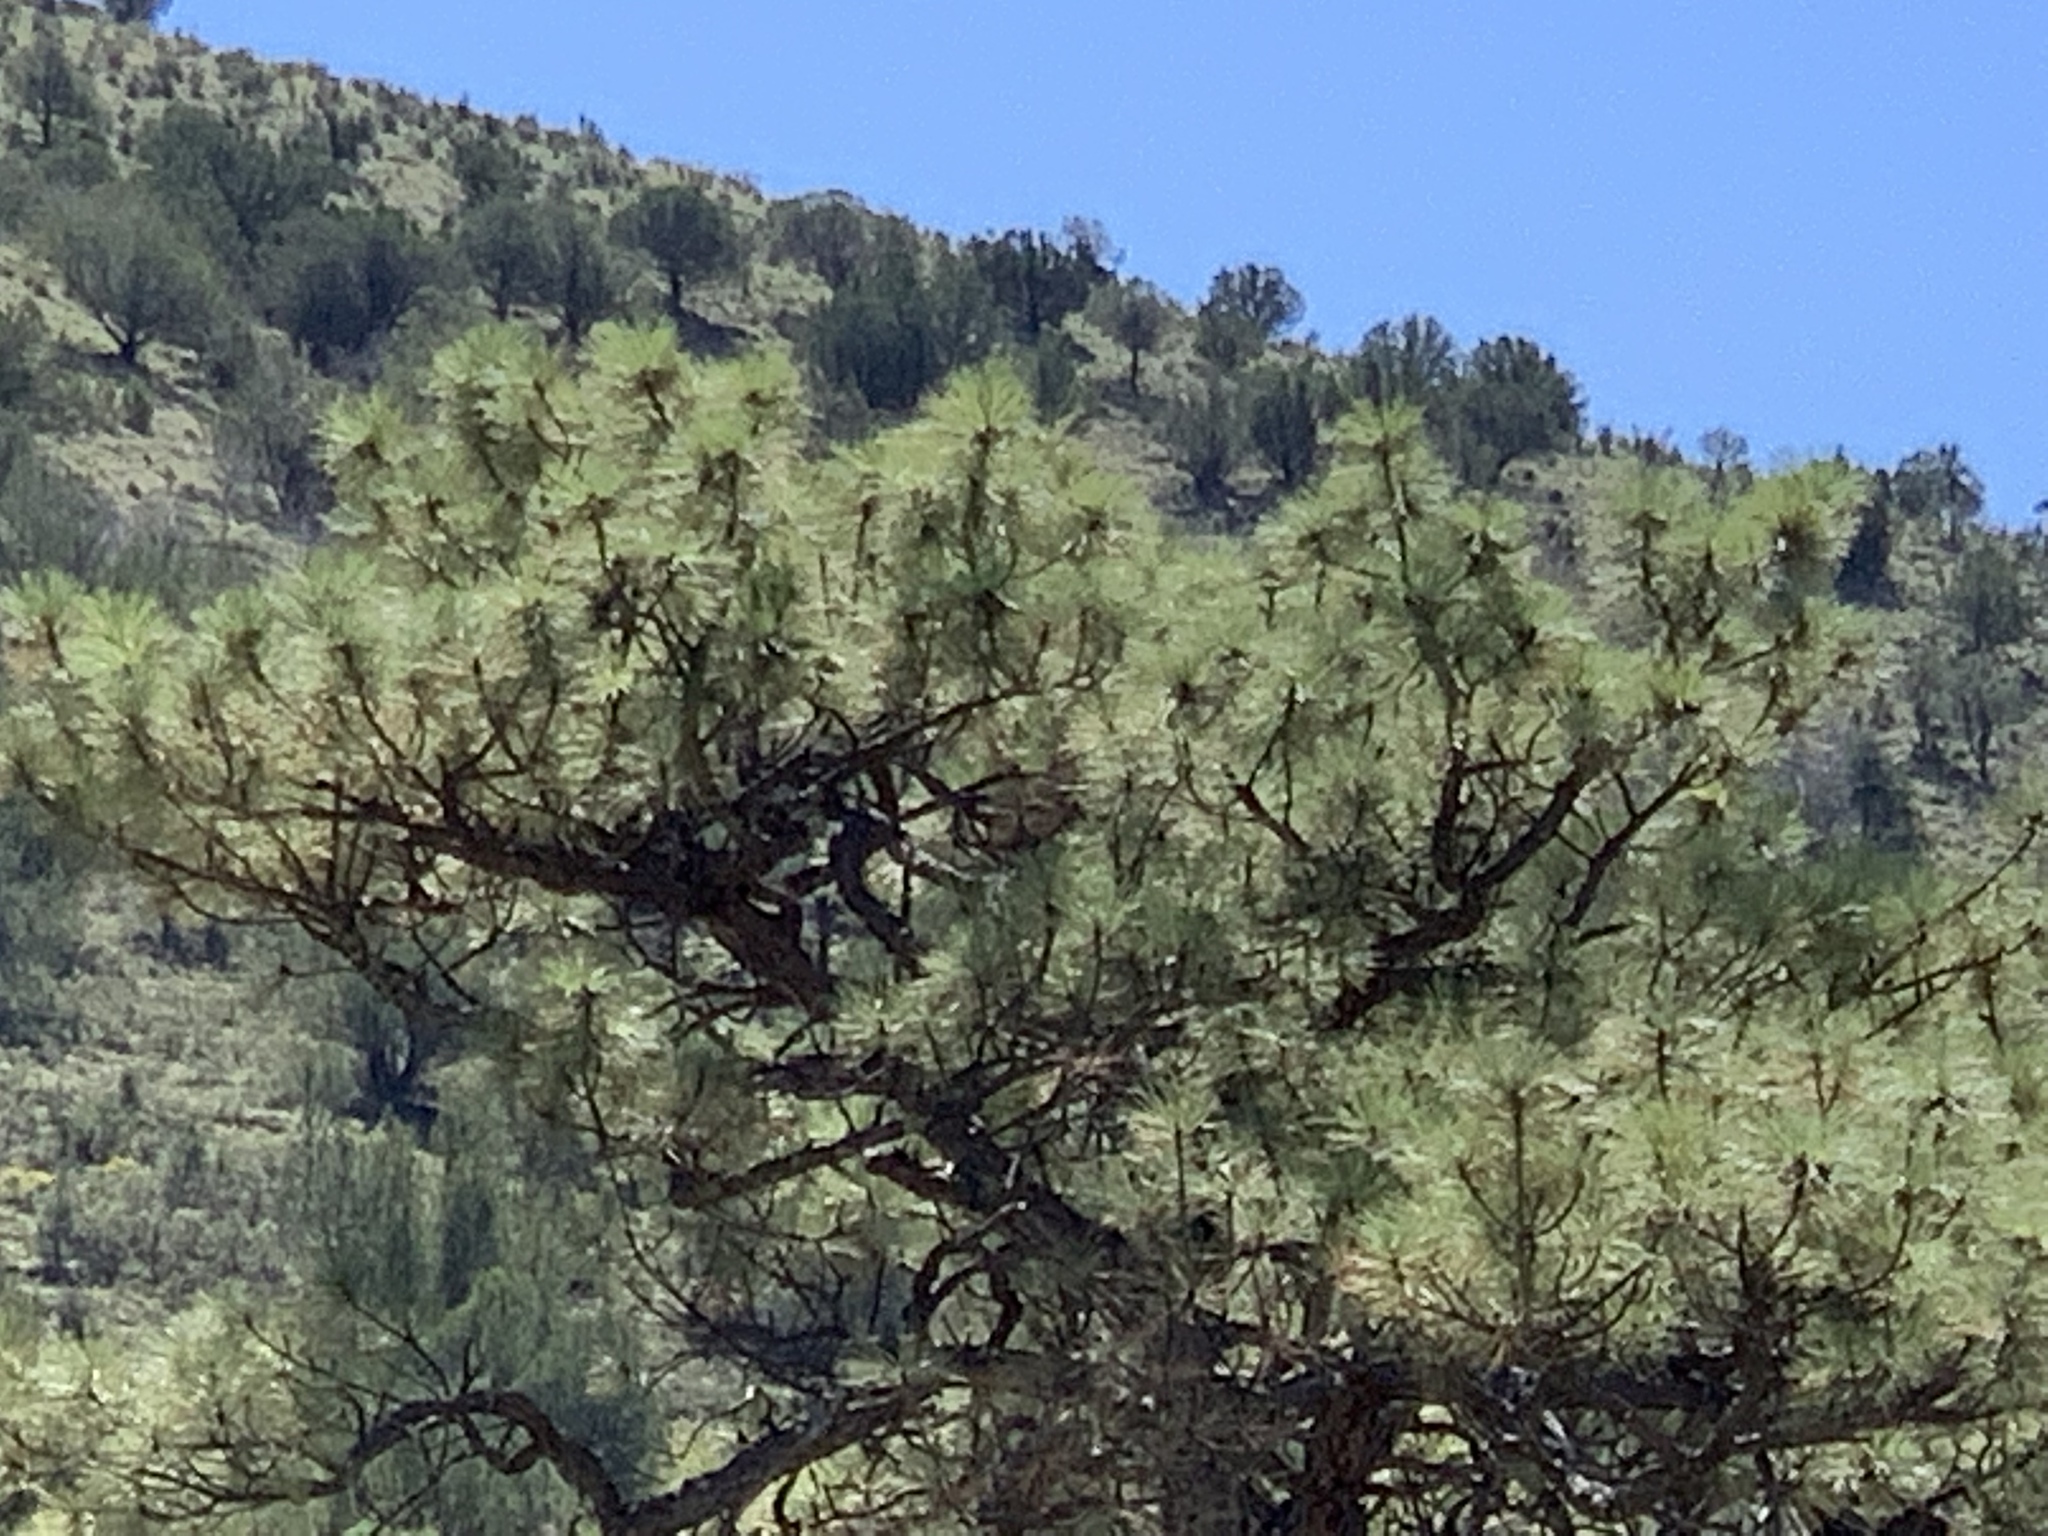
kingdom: Plantae
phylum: Tracheophyta
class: Pinopsida
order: Pinales
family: Pinaceae
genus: Pinus
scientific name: Pinus ponderosa
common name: Western yellow-pine
